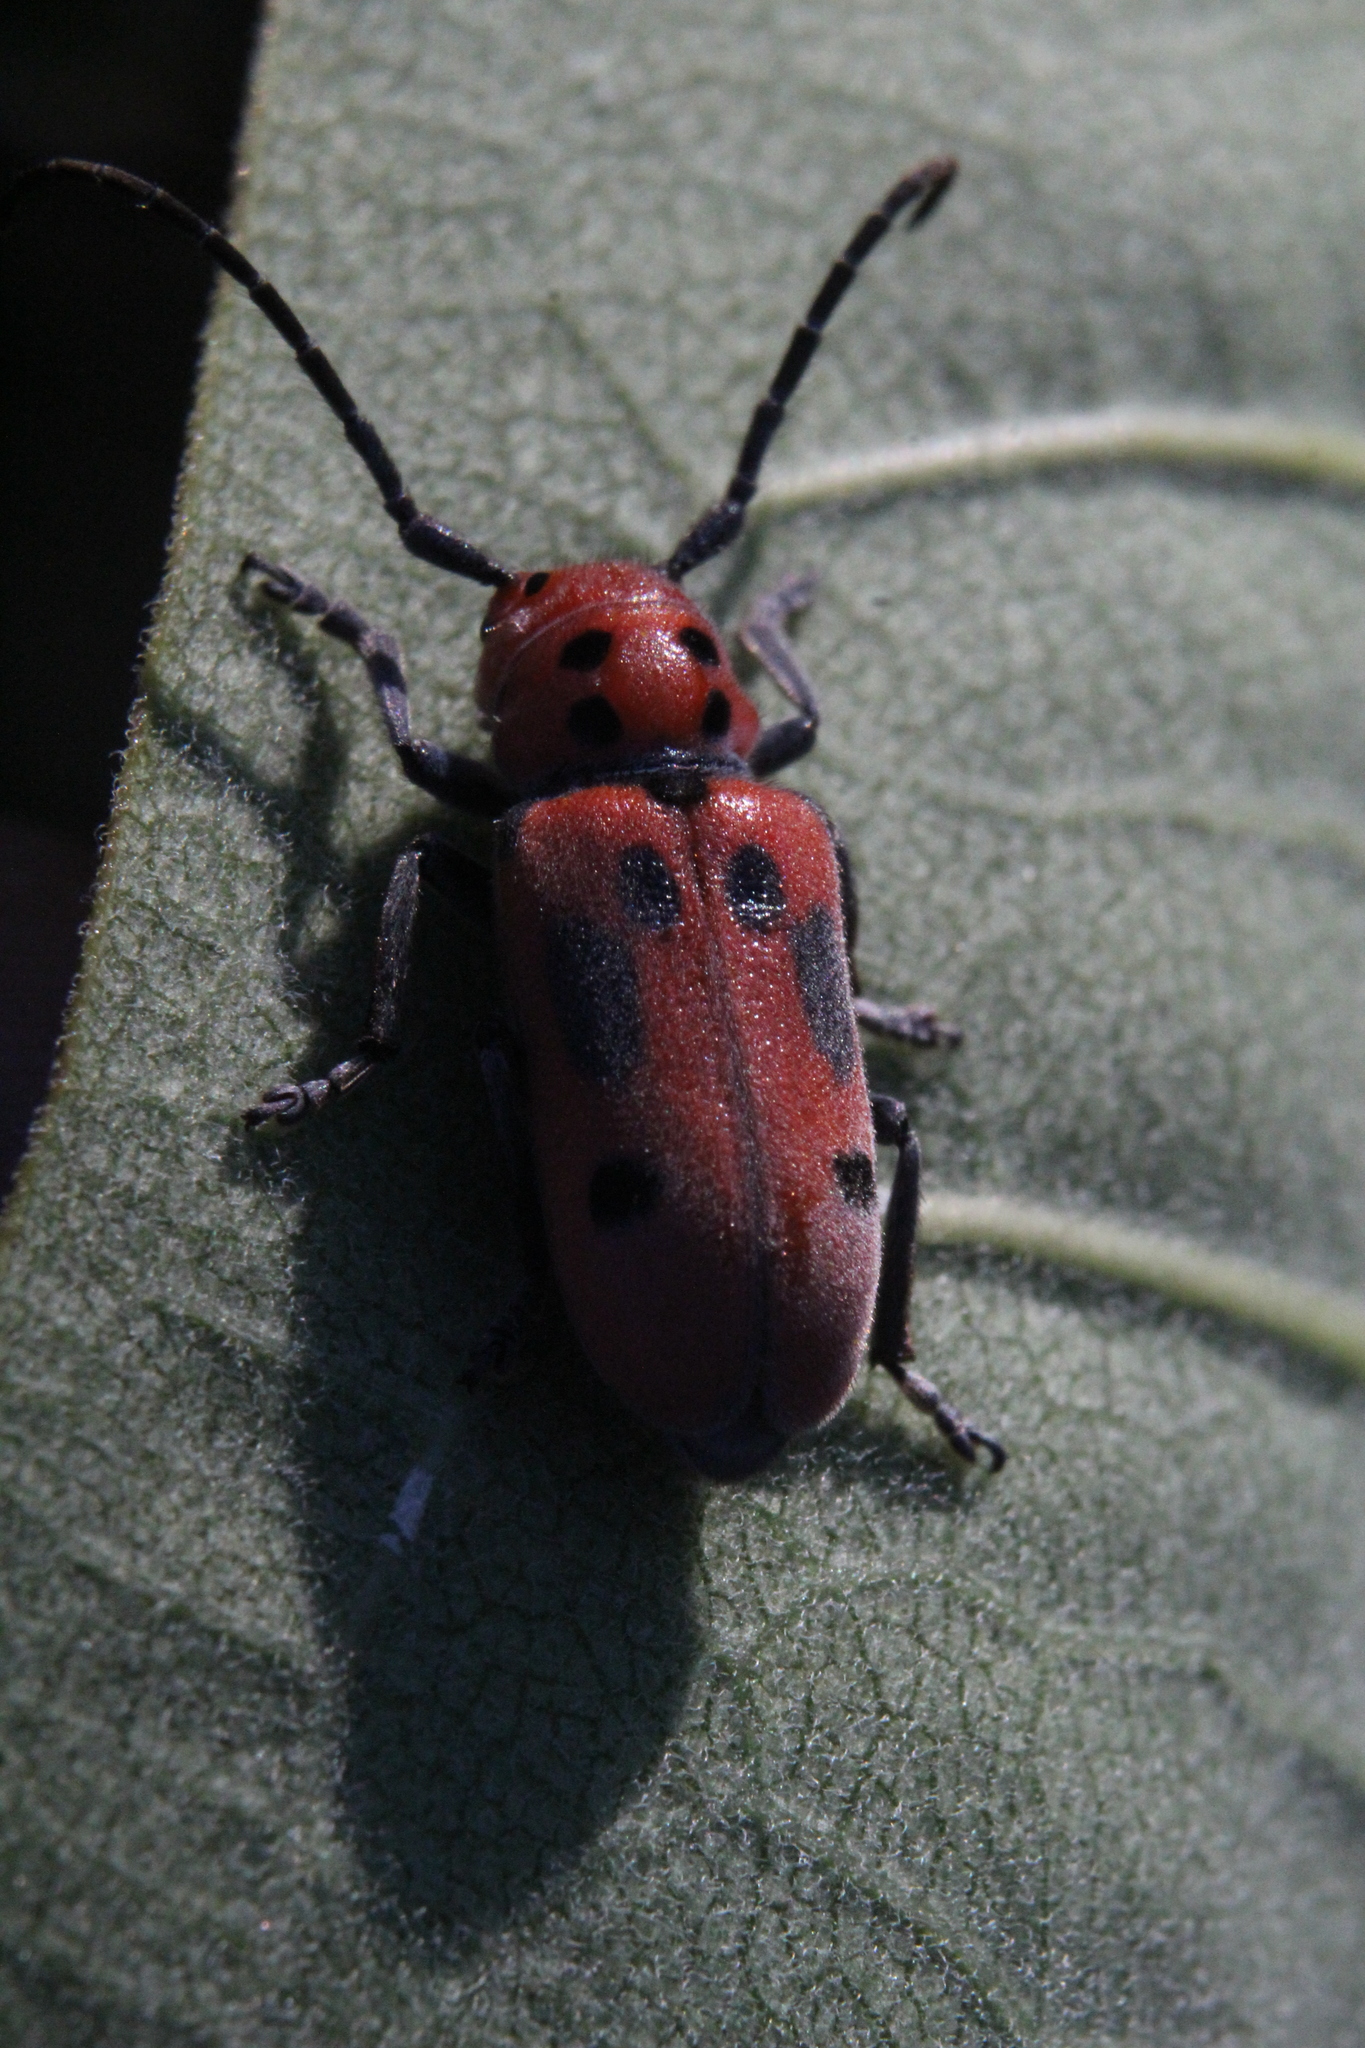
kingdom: Animalia
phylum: Arthropoda
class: Insecta
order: Coleoptera
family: Cerambycidae
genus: Tetraopes
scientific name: Tetraopes tetrophthalmus
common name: Red milkweed beetle
